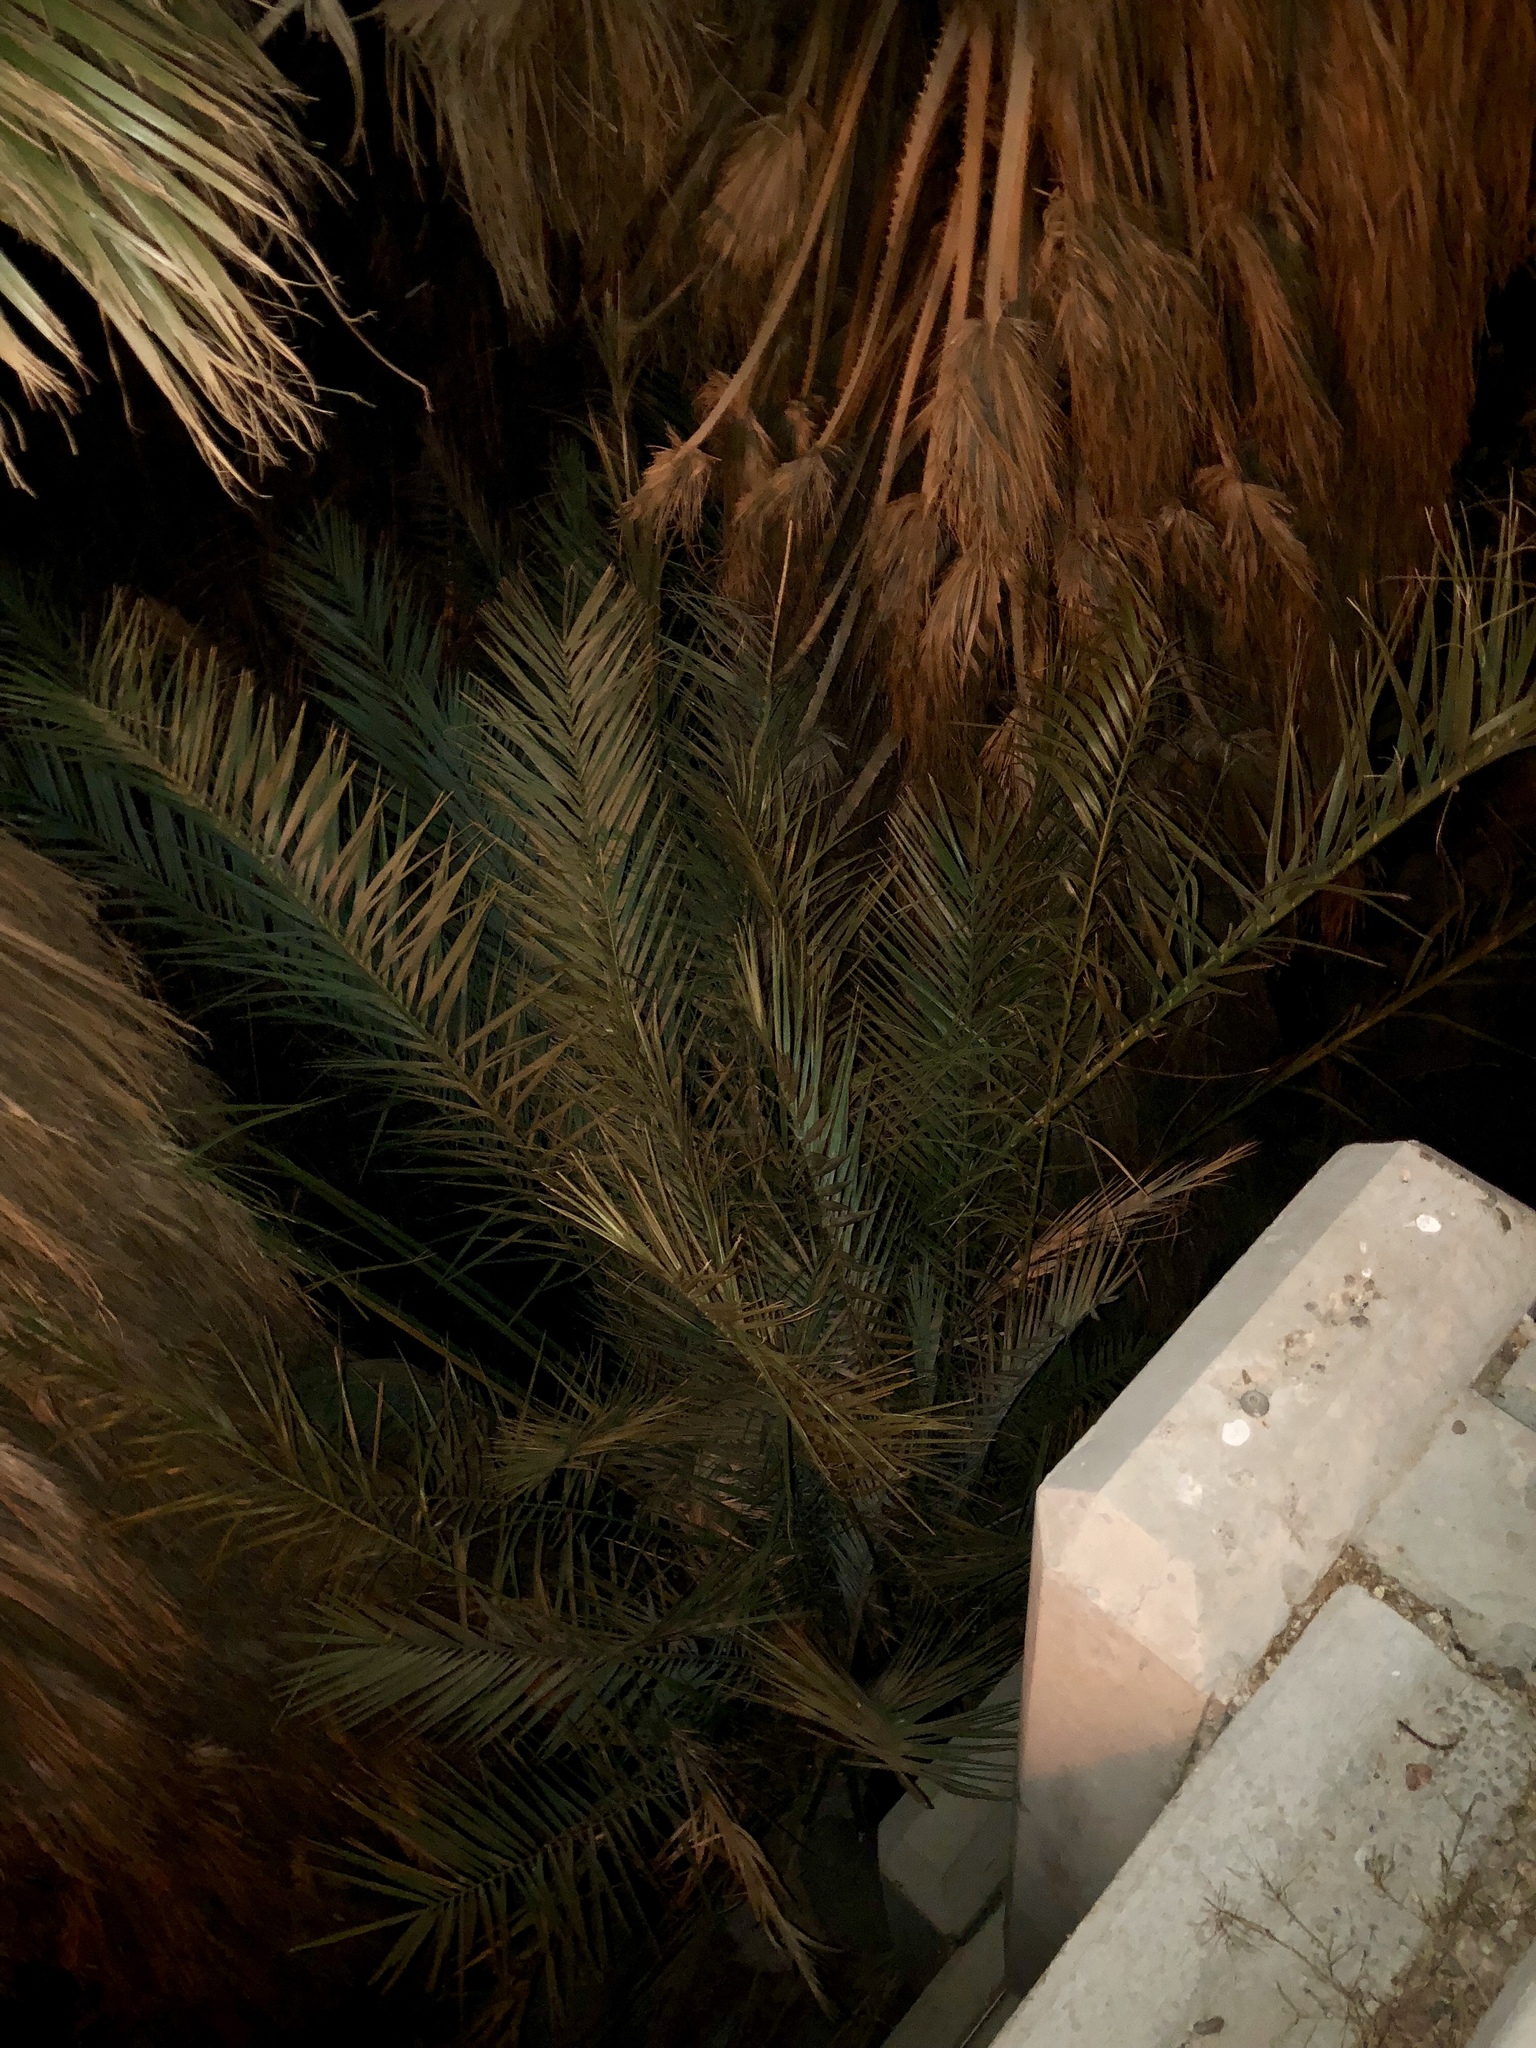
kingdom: Plantae
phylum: Tracheophyta
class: Liliopsida
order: Arecales
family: Arecaceae
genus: Phoenix
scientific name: Phoenix dactylifera
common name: Date palm
